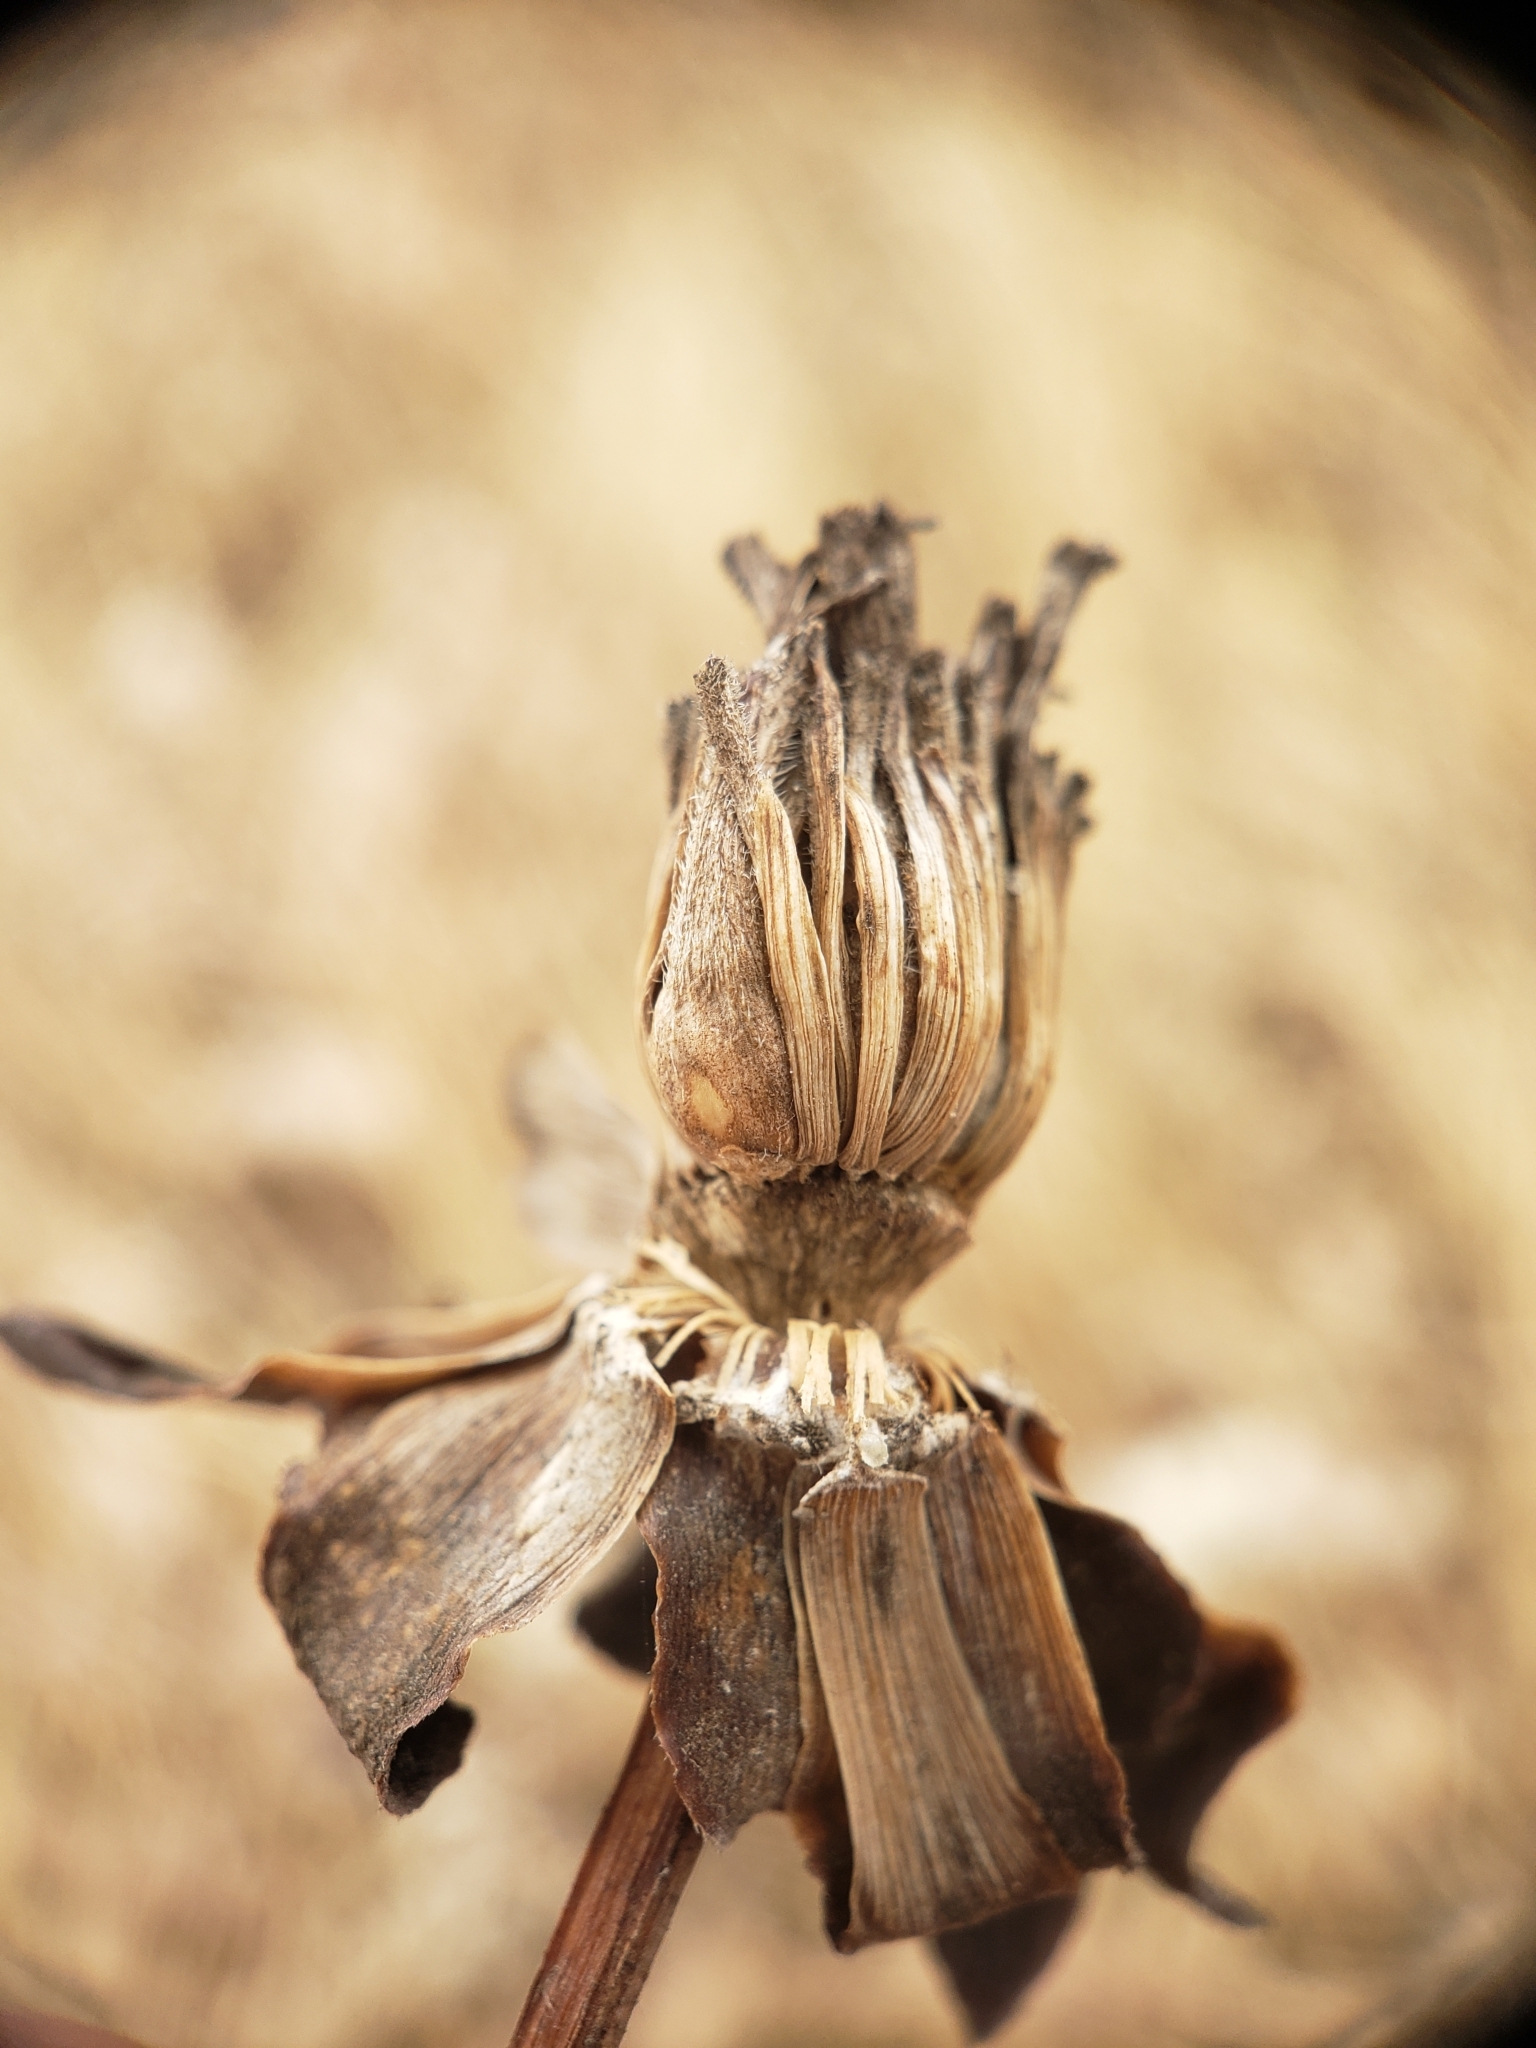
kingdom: Animalia
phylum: Arthropoda
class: Insecta
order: Hymenoptera
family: Cynipidae
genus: Antistrophus
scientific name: Antistrophus
